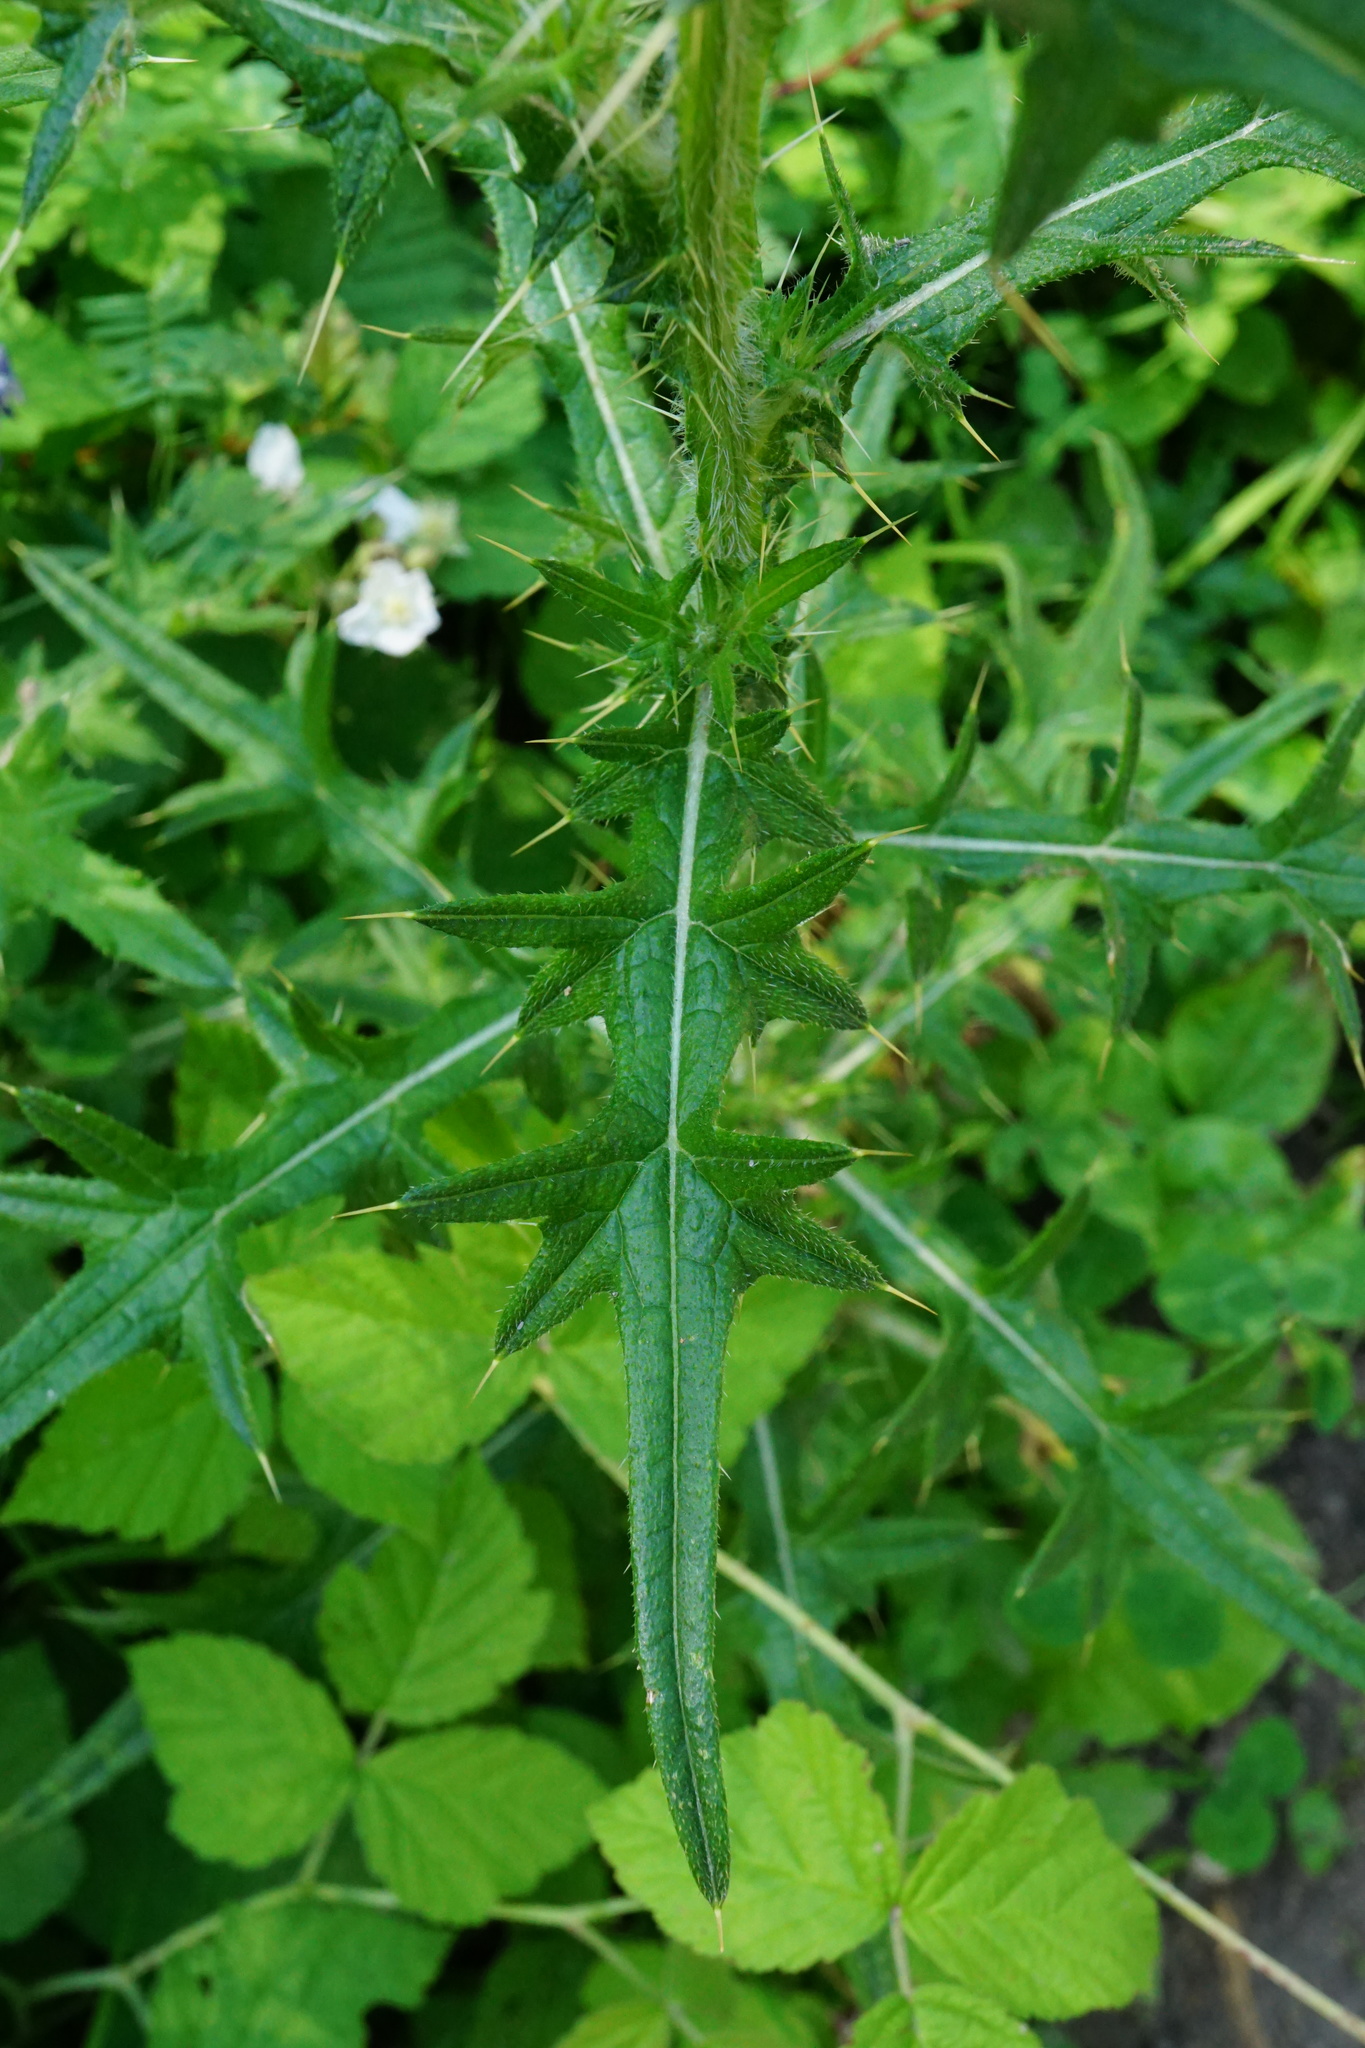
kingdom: Plantae
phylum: Tracheophyta
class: Magnoliopsida
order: Asterales
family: Asteraceae
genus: Cirsium
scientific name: Cirsium vulgare
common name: Bull thistle
